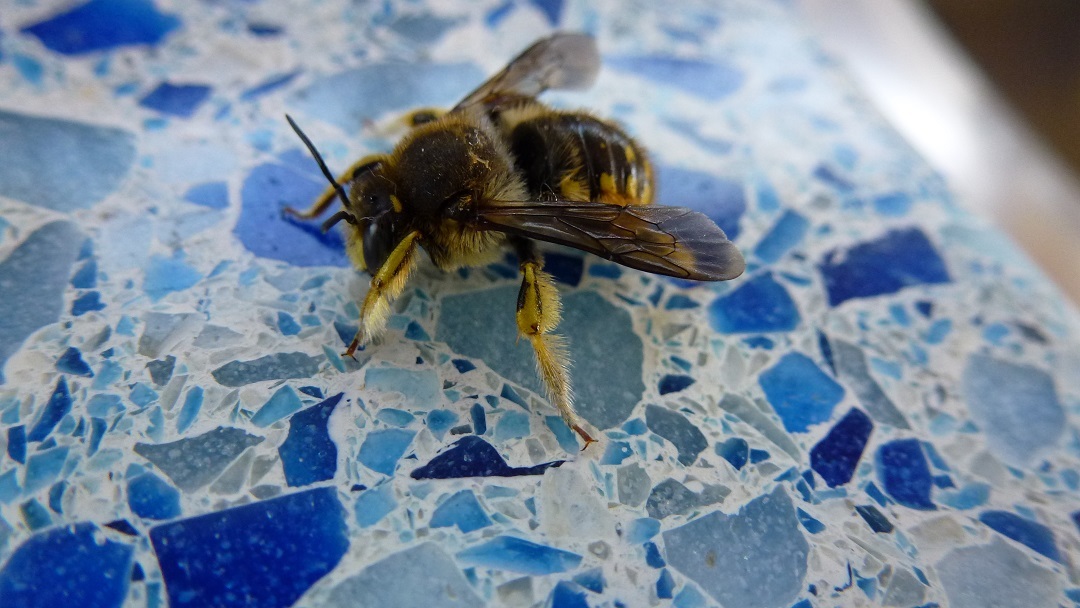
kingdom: Animalia
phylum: Arthropoda
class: Insecta
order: Hymenoptera
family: Megachilidae
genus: Anthidium
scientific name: Anthidium manicatum
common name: Wool carder bee
